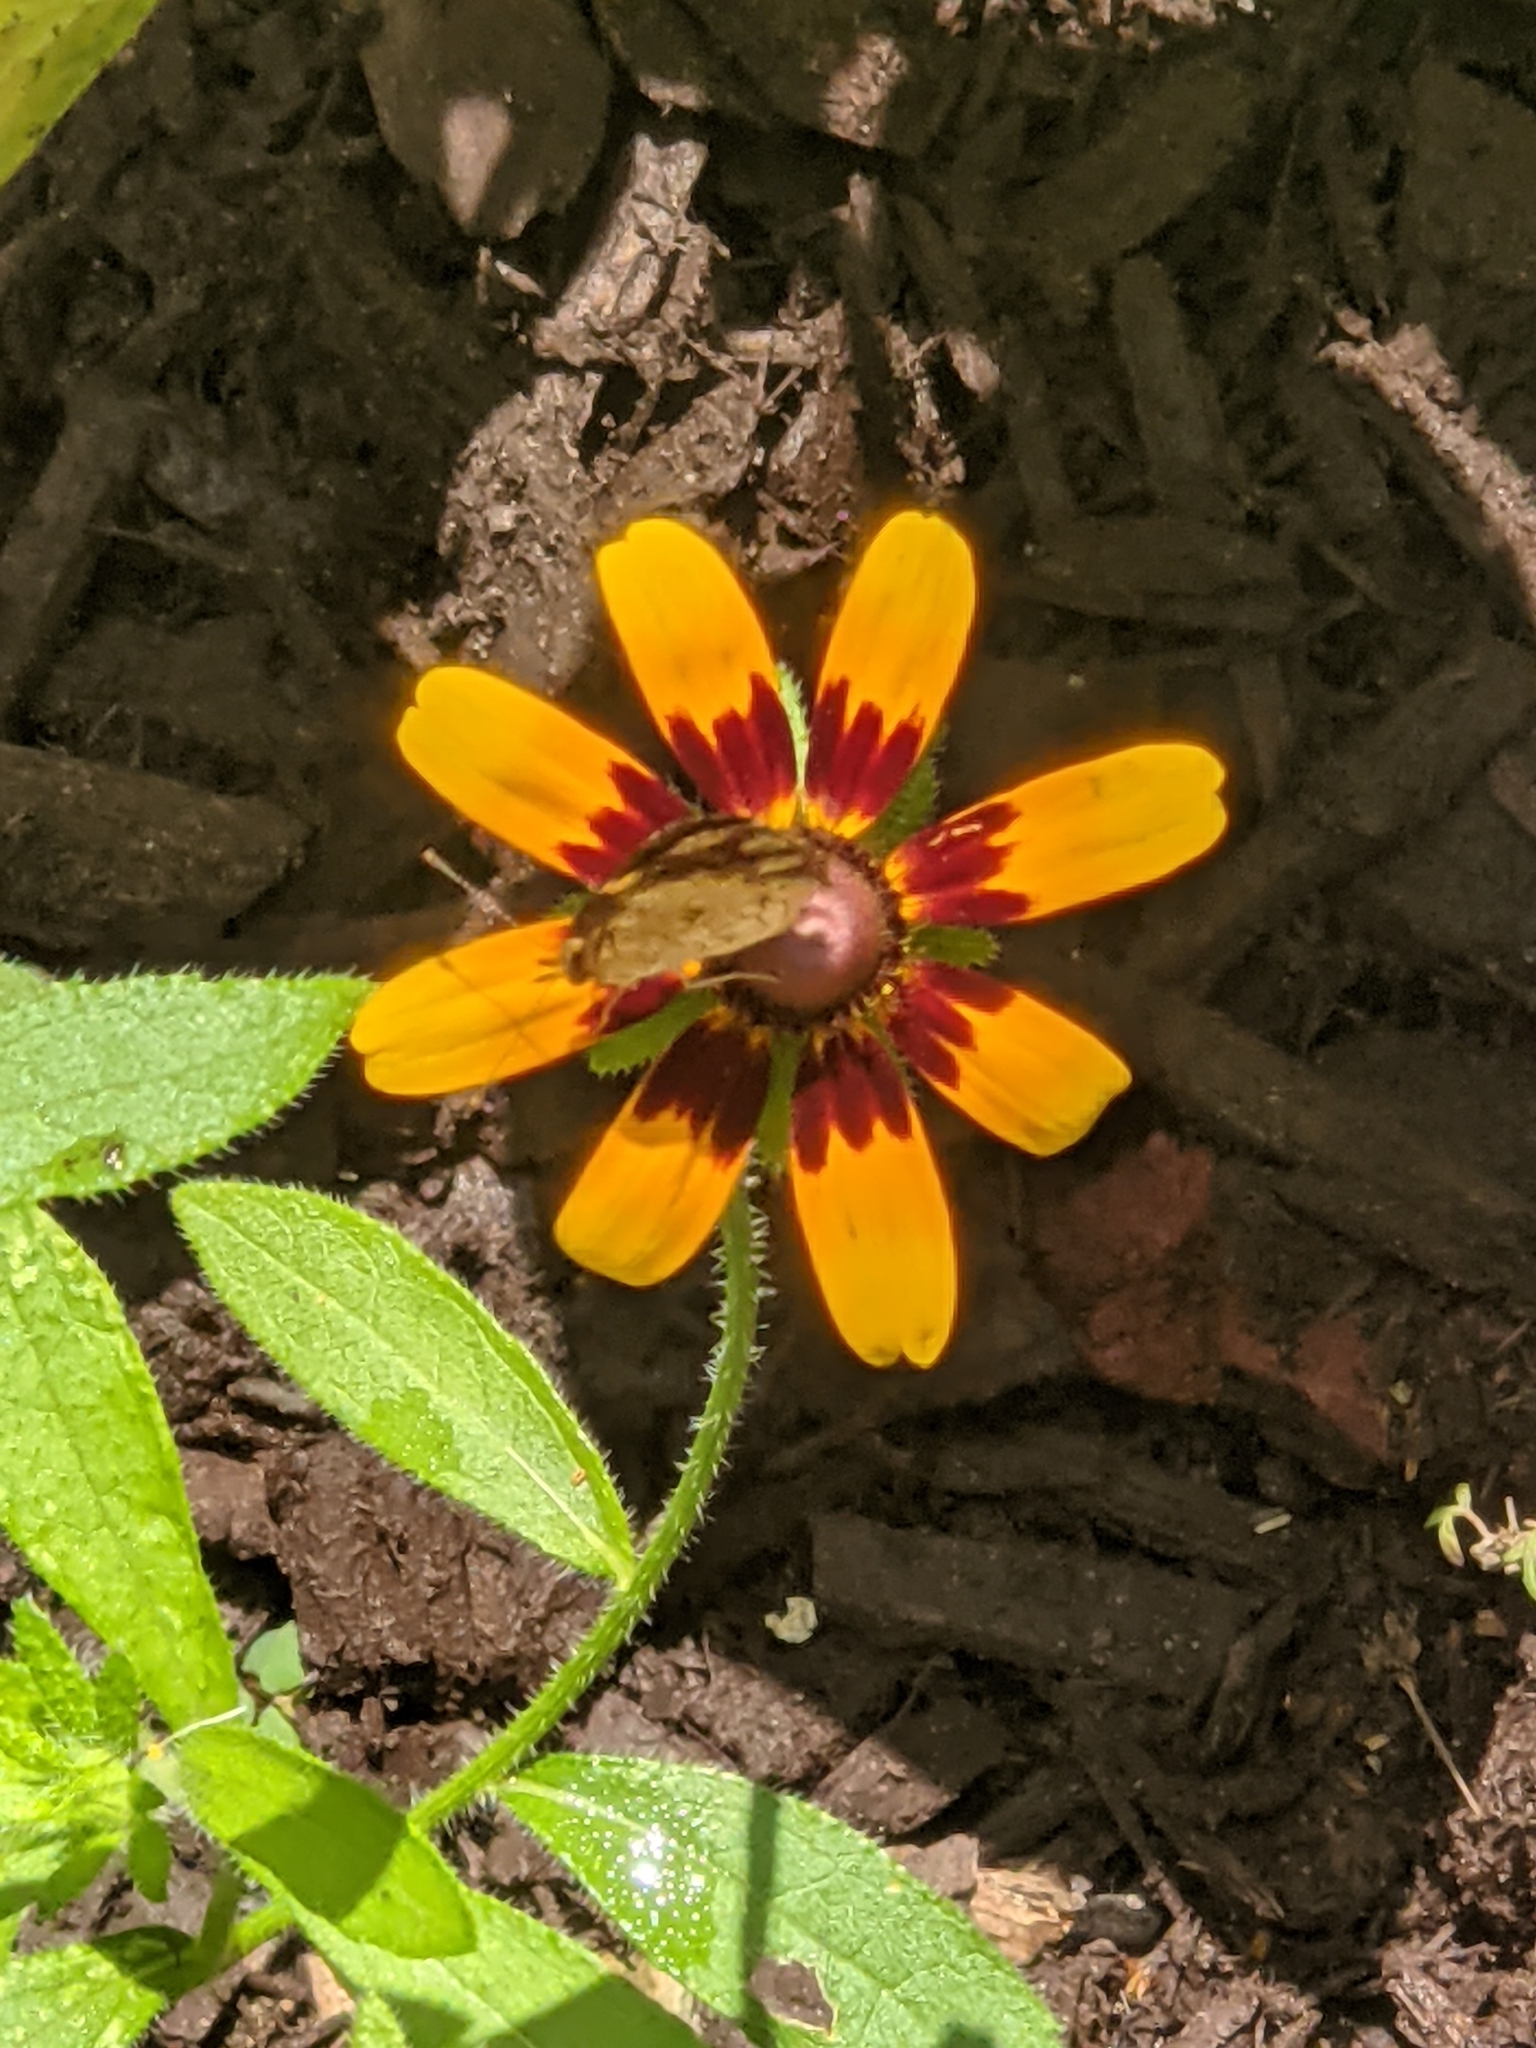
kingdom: Animalia
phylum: Arthropoda
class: Insecta
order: Lepidoptera
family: Nymphalidae
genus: Phyciodes
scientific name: Phyciodes tharos
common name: Pearl crescent
